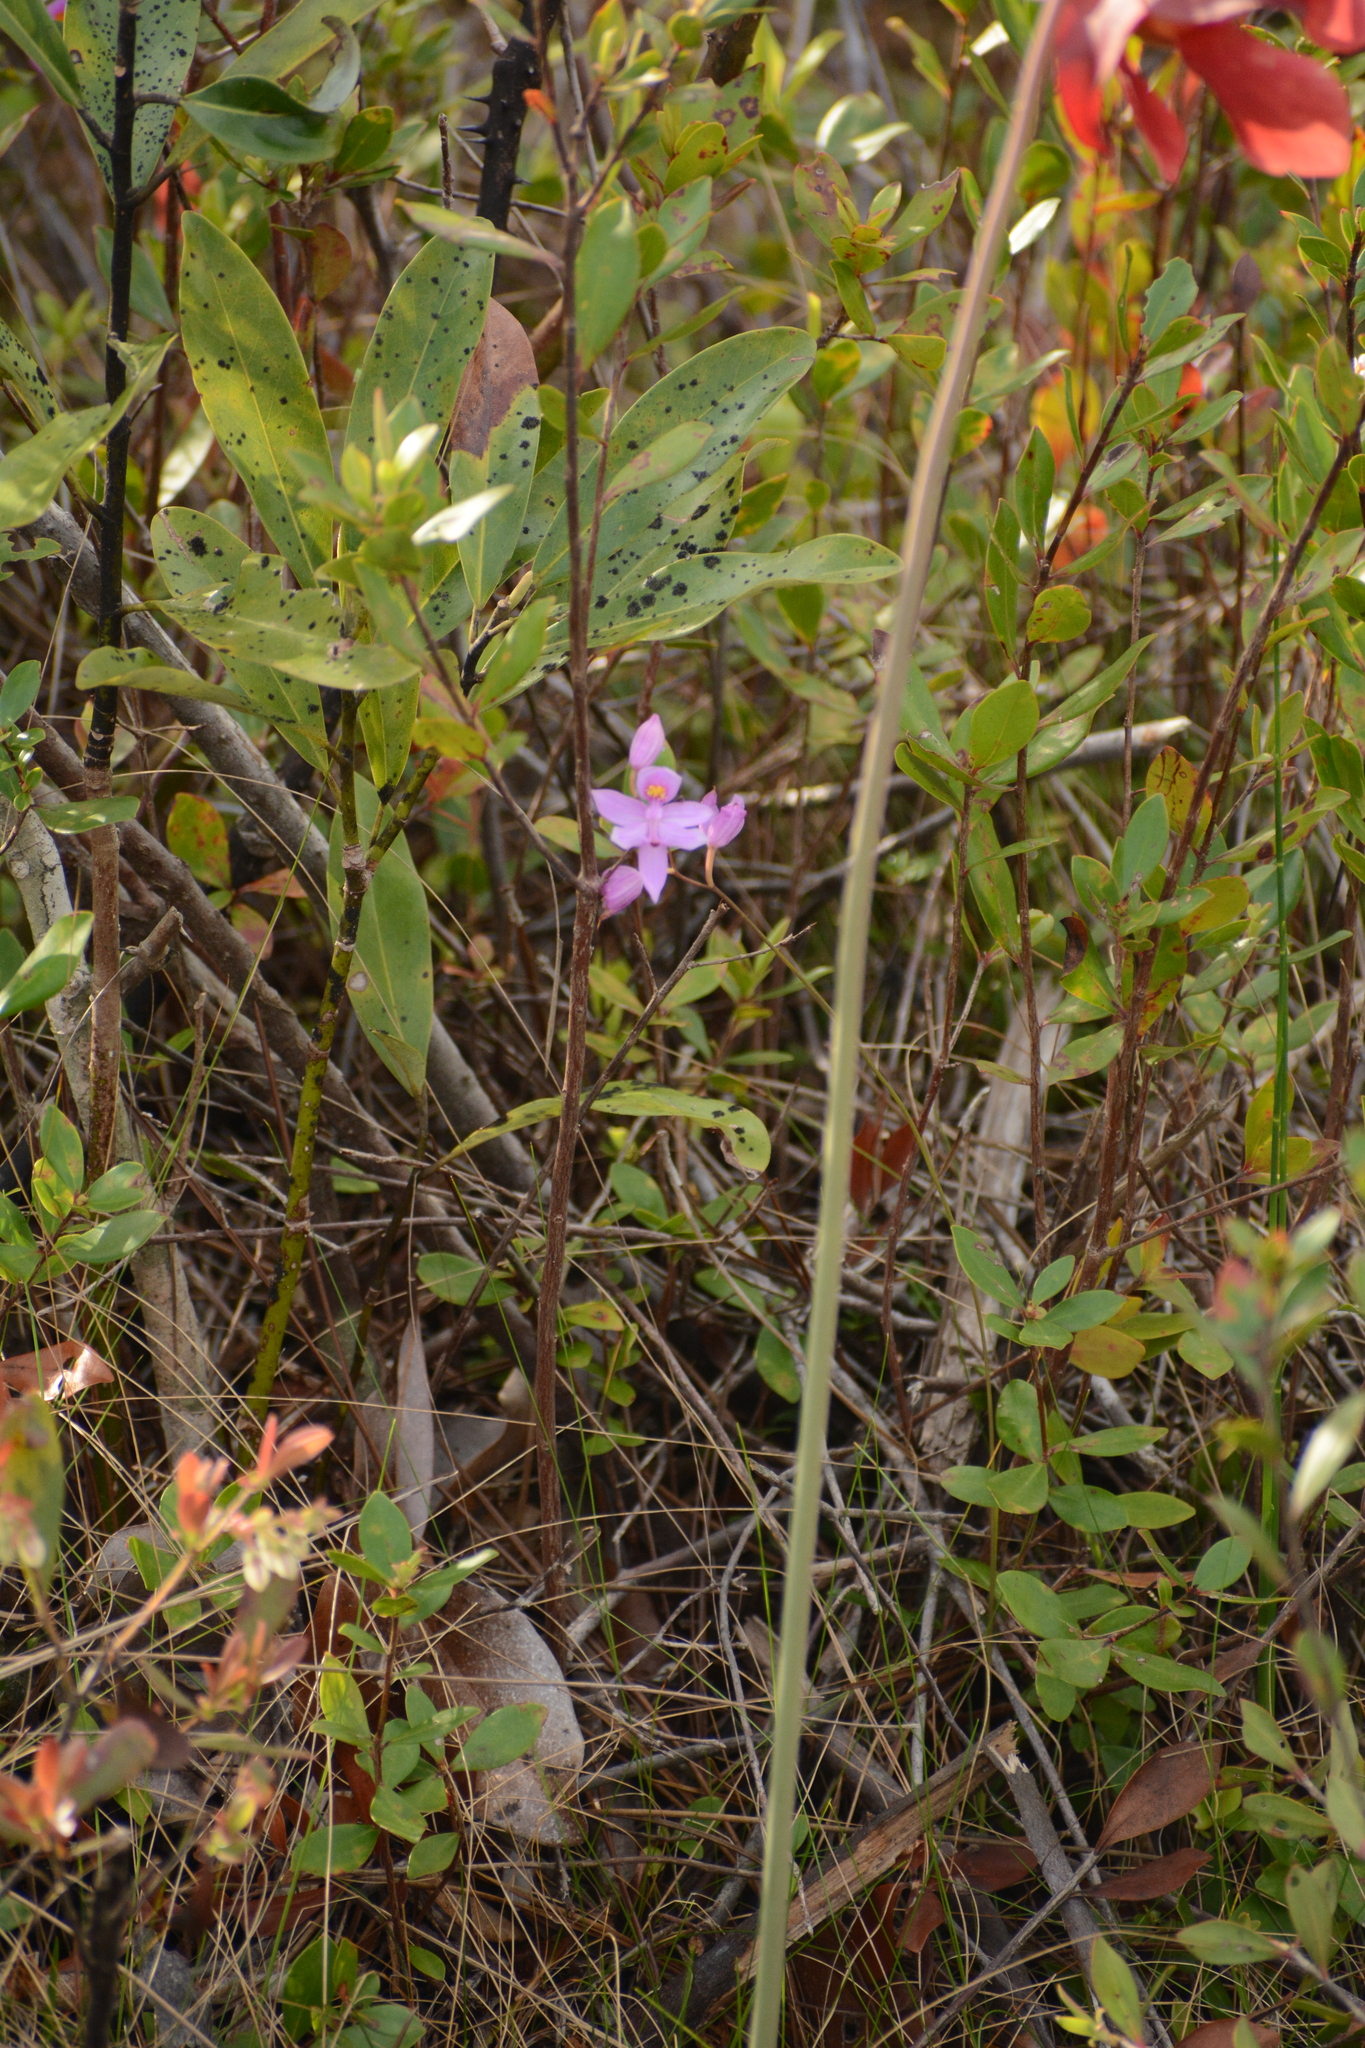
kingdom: Plantae
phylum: Tracheophyta
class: Liliopsida
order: Asparagales
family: Orchidaceae
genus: Calopogon
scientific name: Calopogon barbatus
